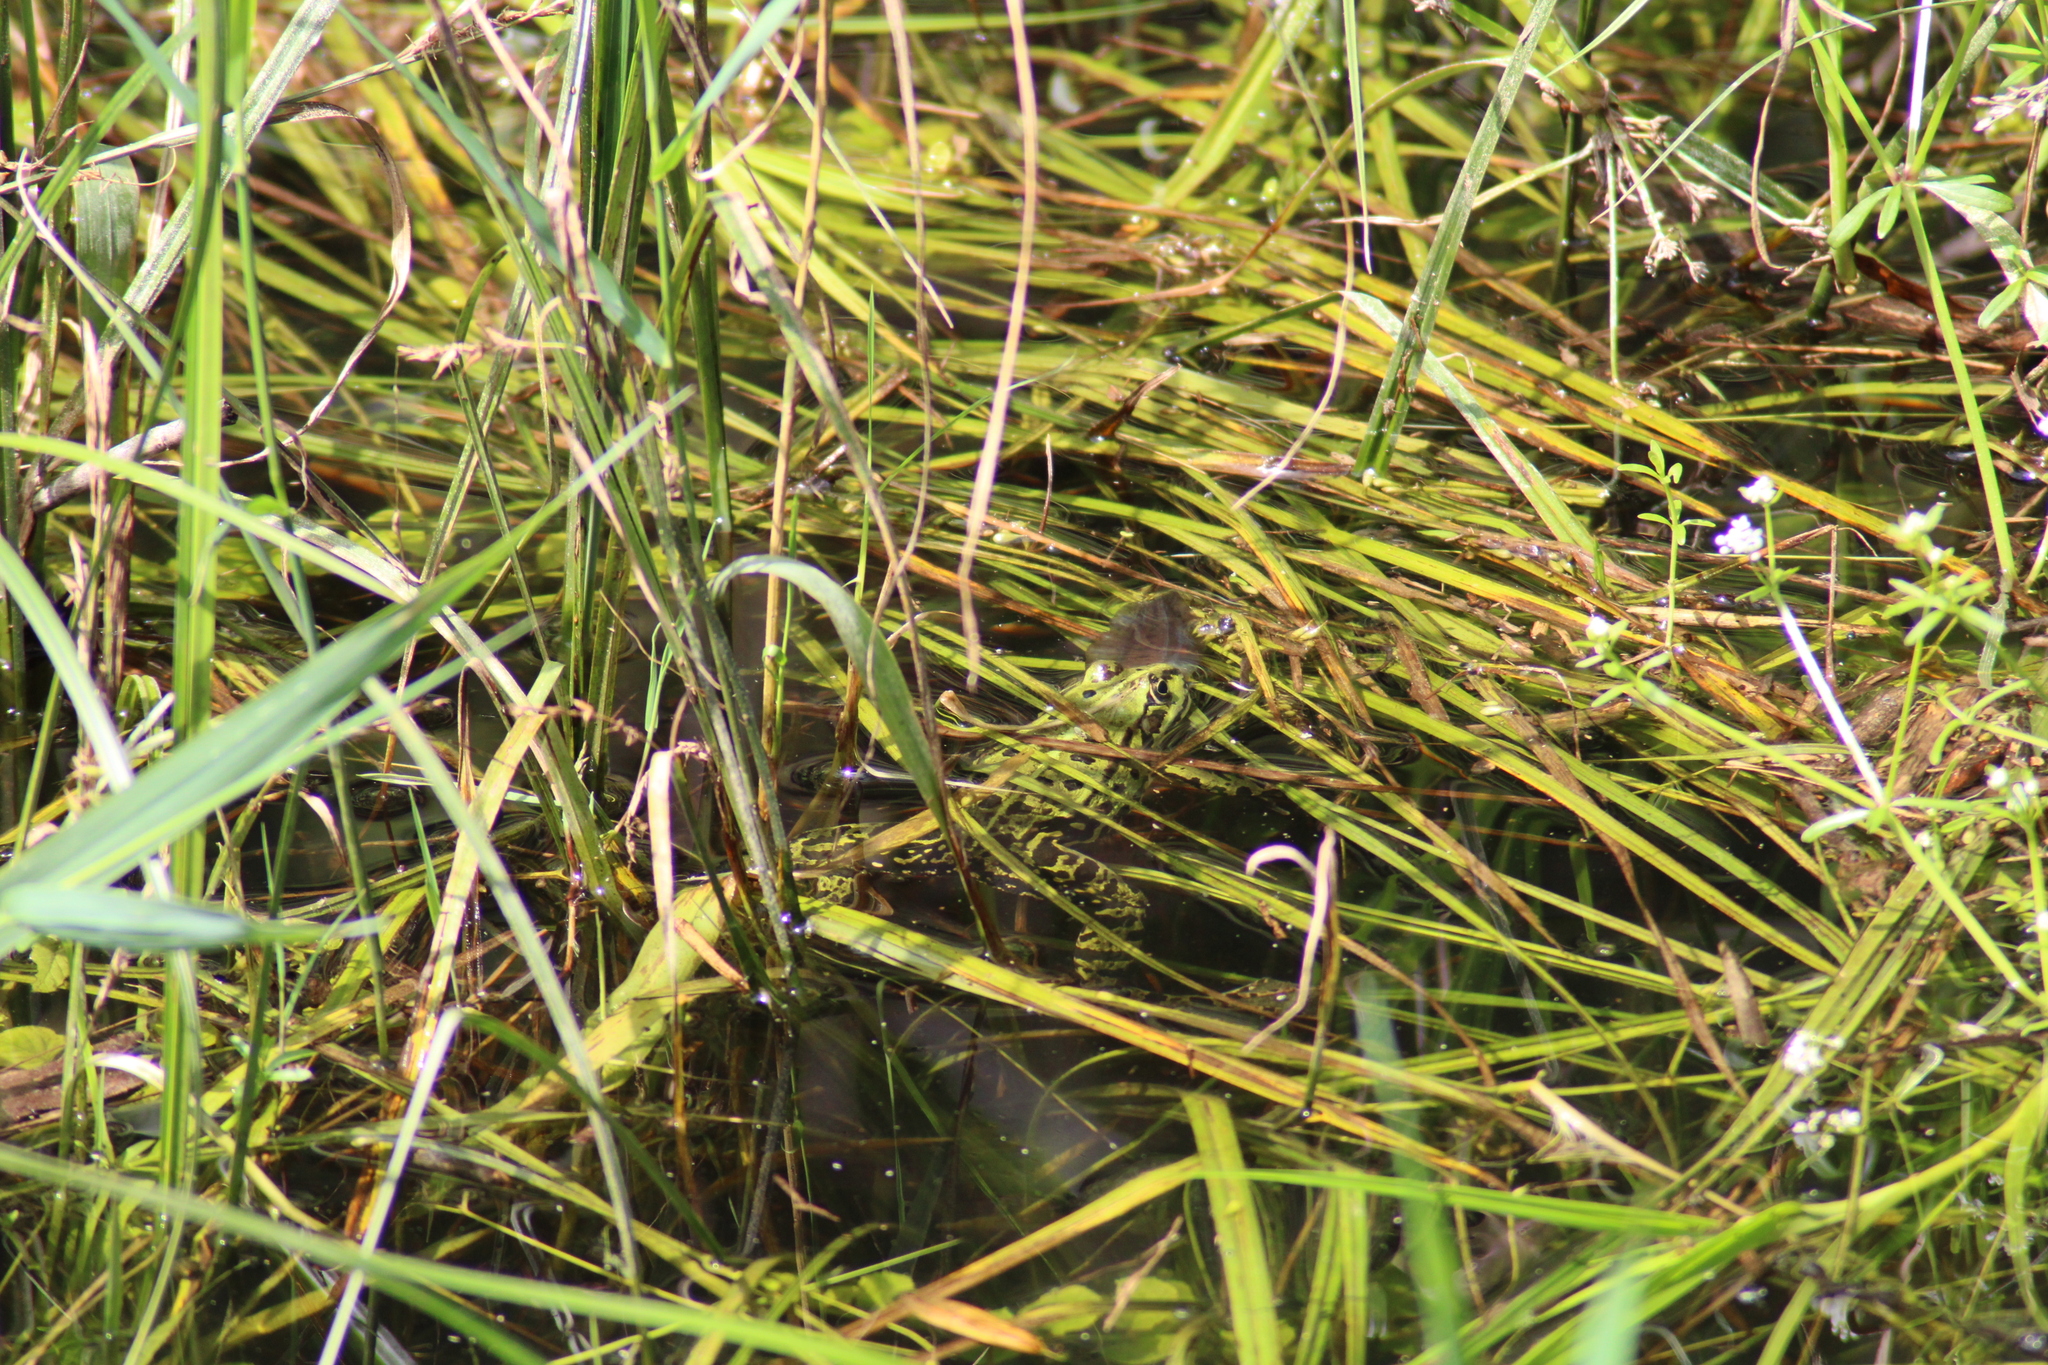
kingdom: Animalia
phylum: Chordata
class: Amphibia
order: Anura
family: Ranidae
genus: Pelophylax
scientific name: Pelophylax
